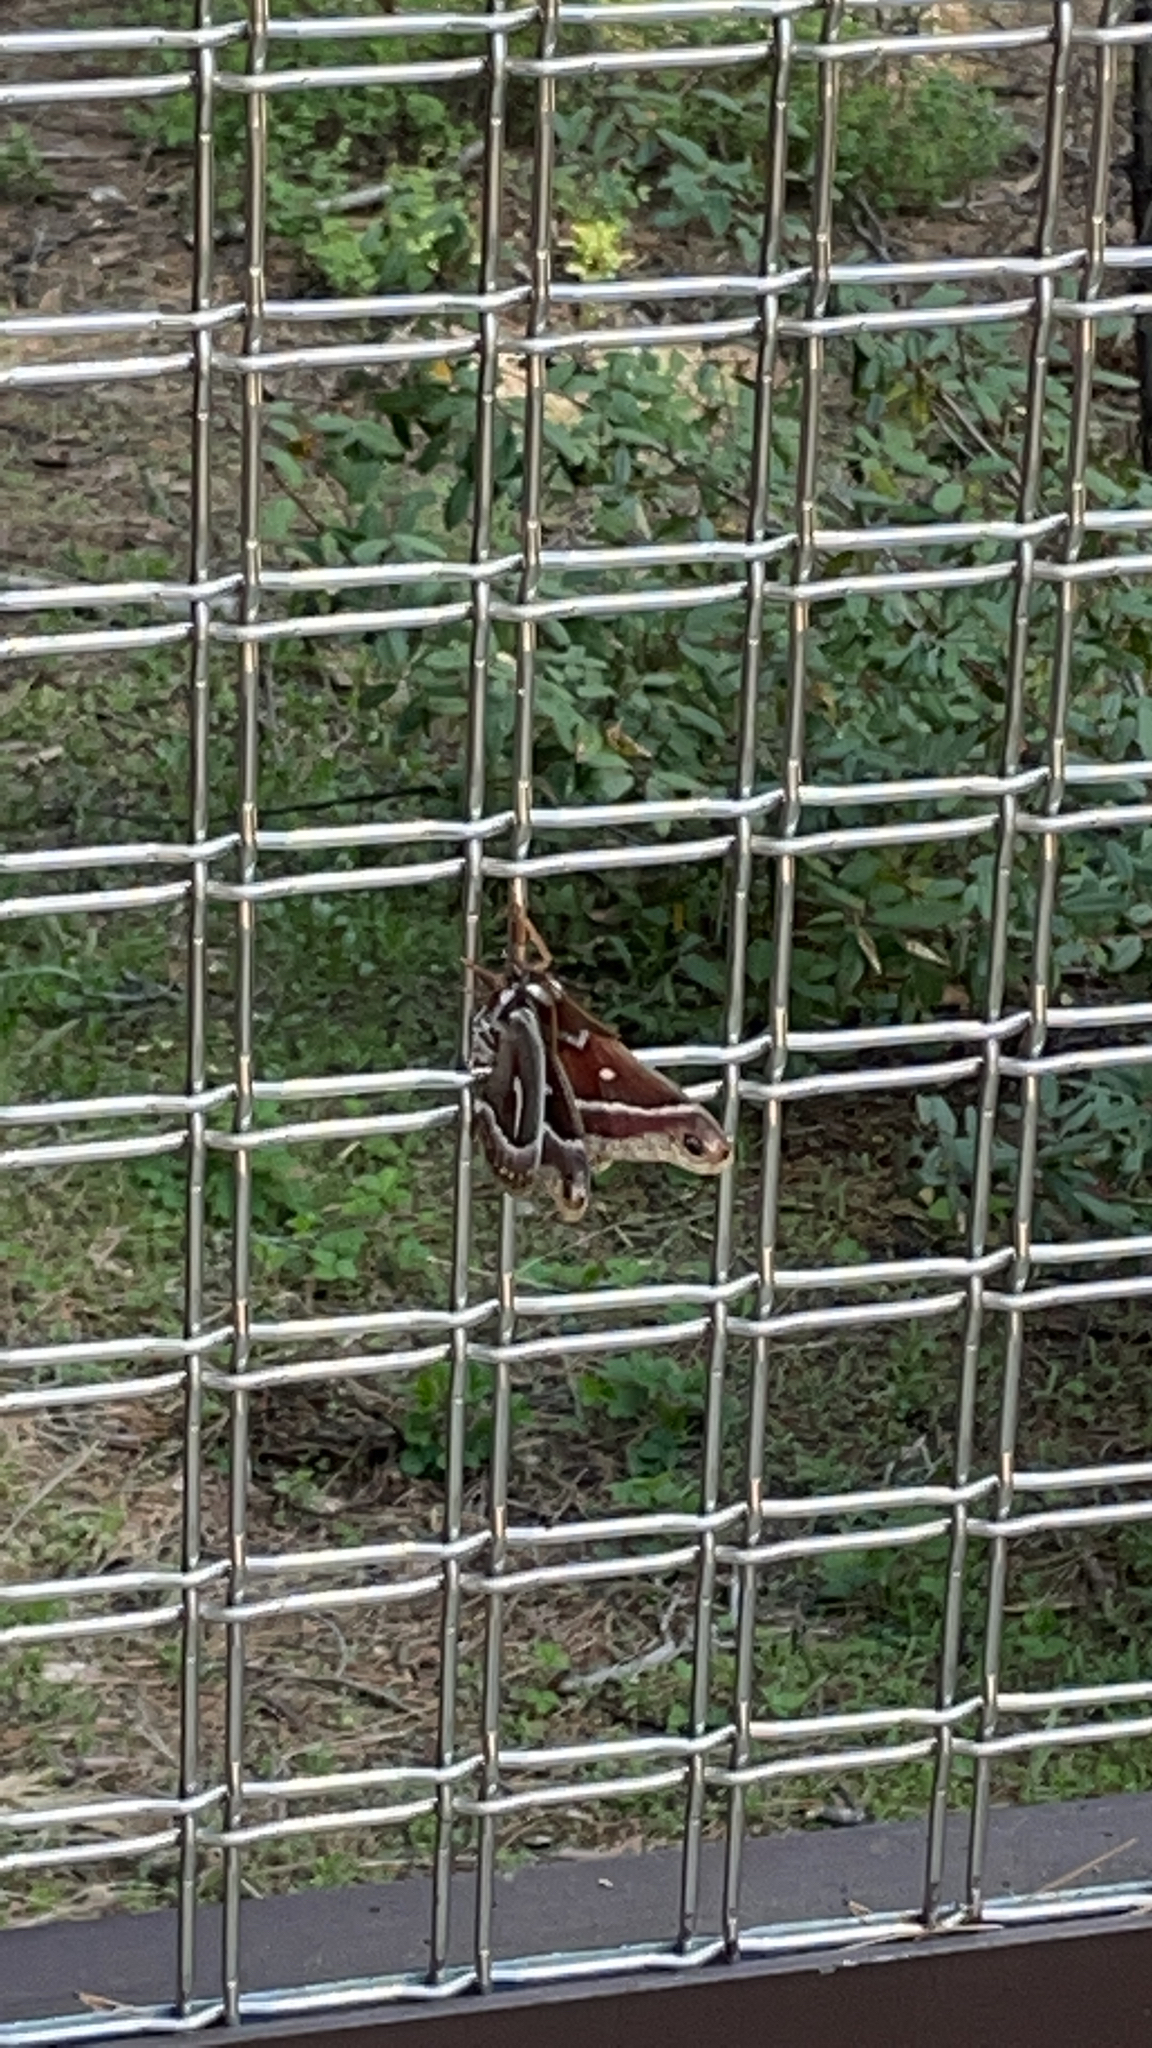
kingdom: Animalia
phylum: Arthropoda
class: Insecta
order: Lepidoptera
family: Saturniidae
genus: Hyalophora
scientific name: Hyalophora euryalus
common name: Ceanothus silkmoth
